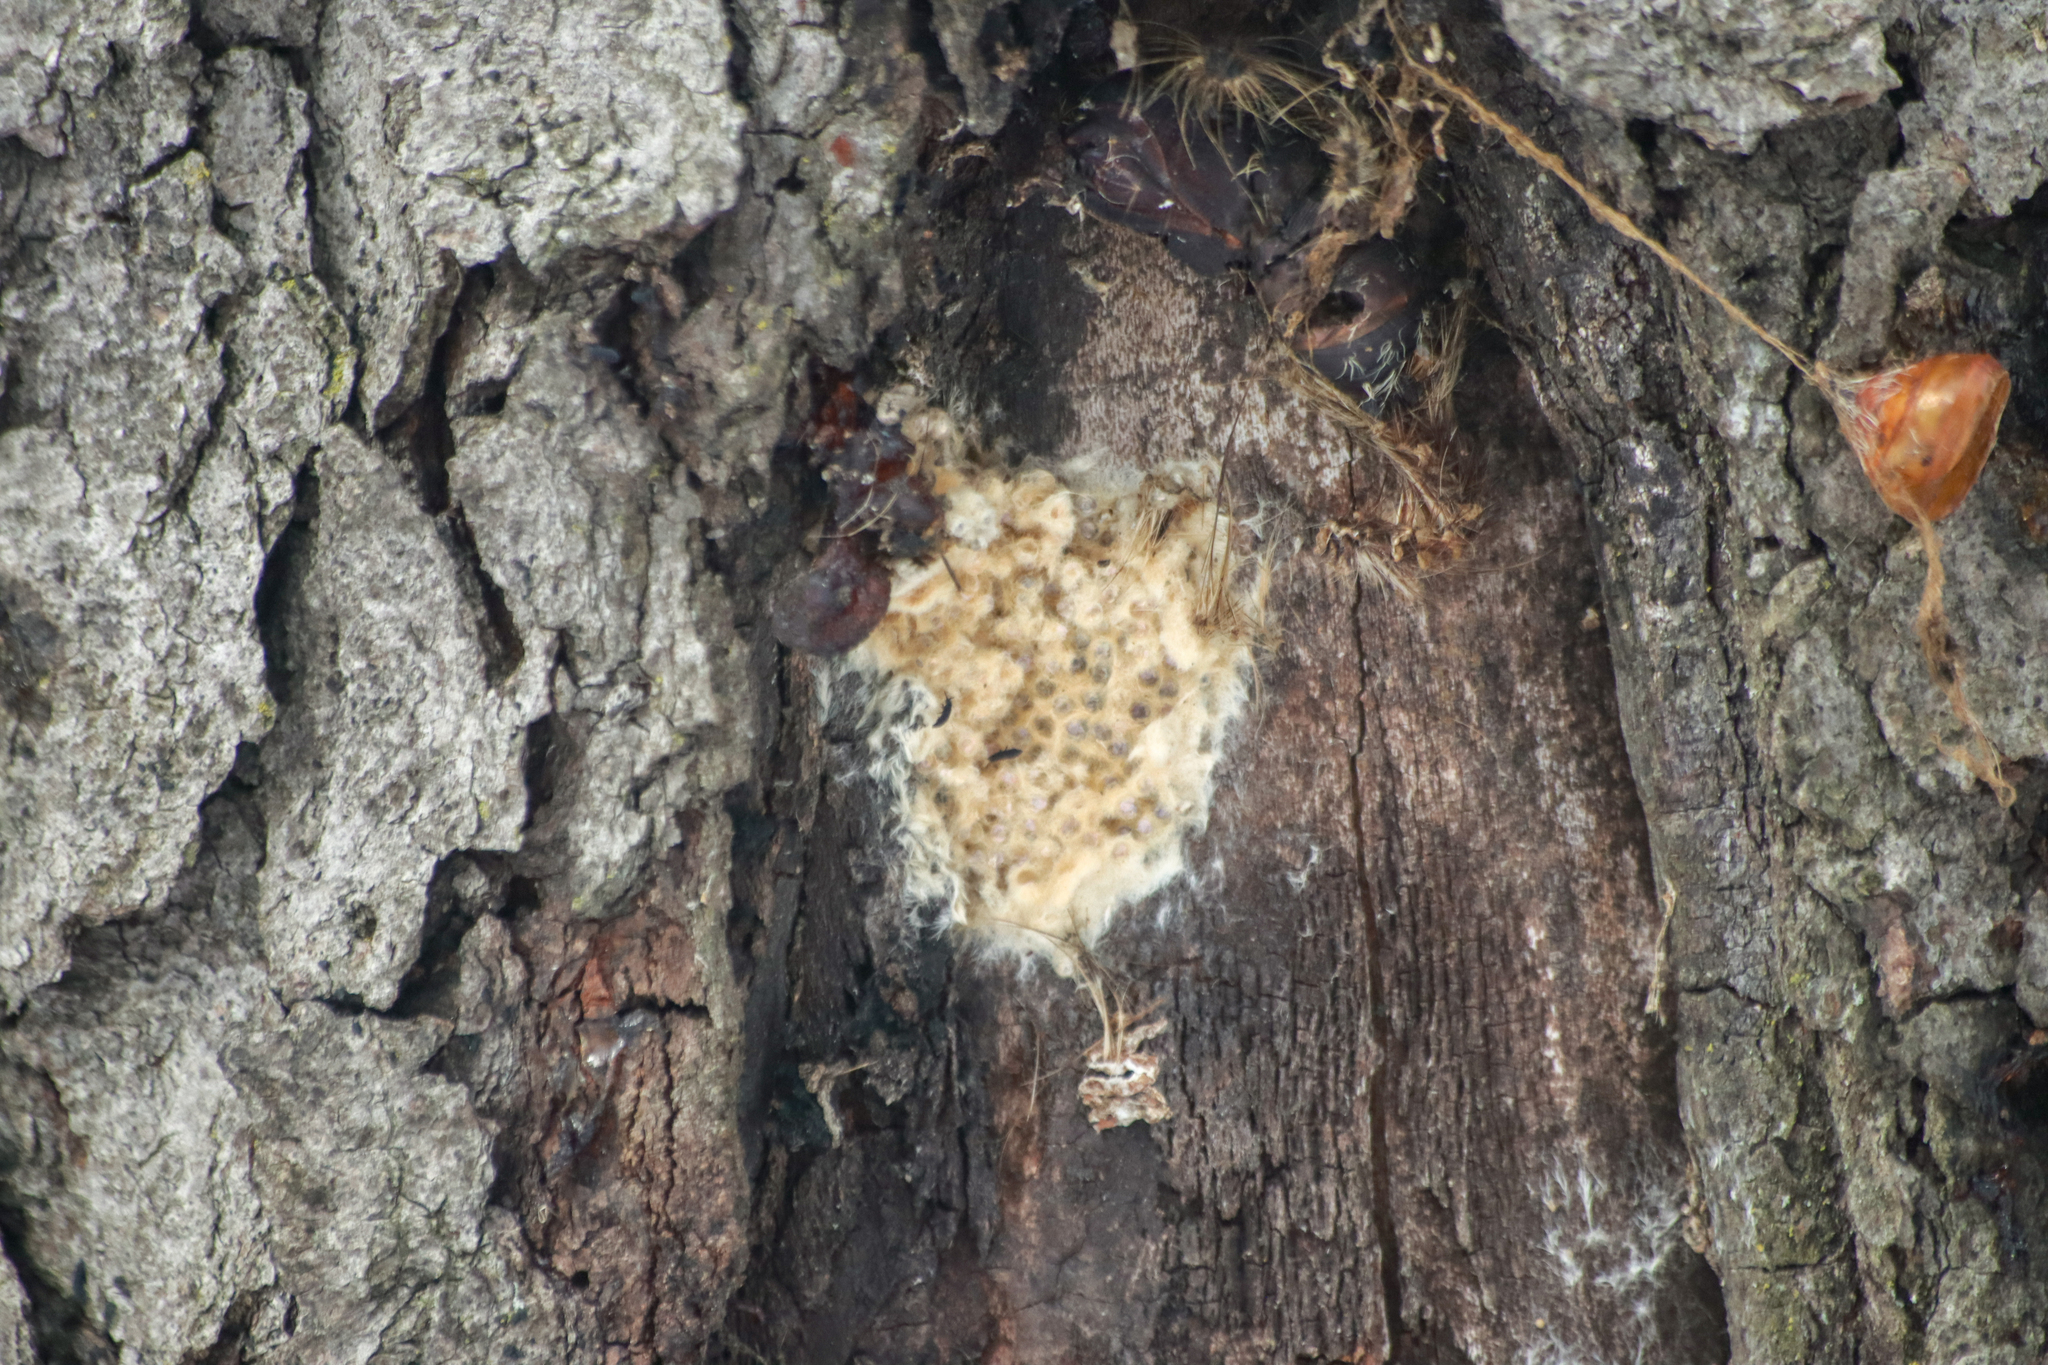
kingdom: Animalia
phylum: Arthropoda
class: Insecta
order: Lepidoptera
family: Erebidae
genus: Lymantria
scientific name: Lymantria dispar
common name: Gypsy moth
